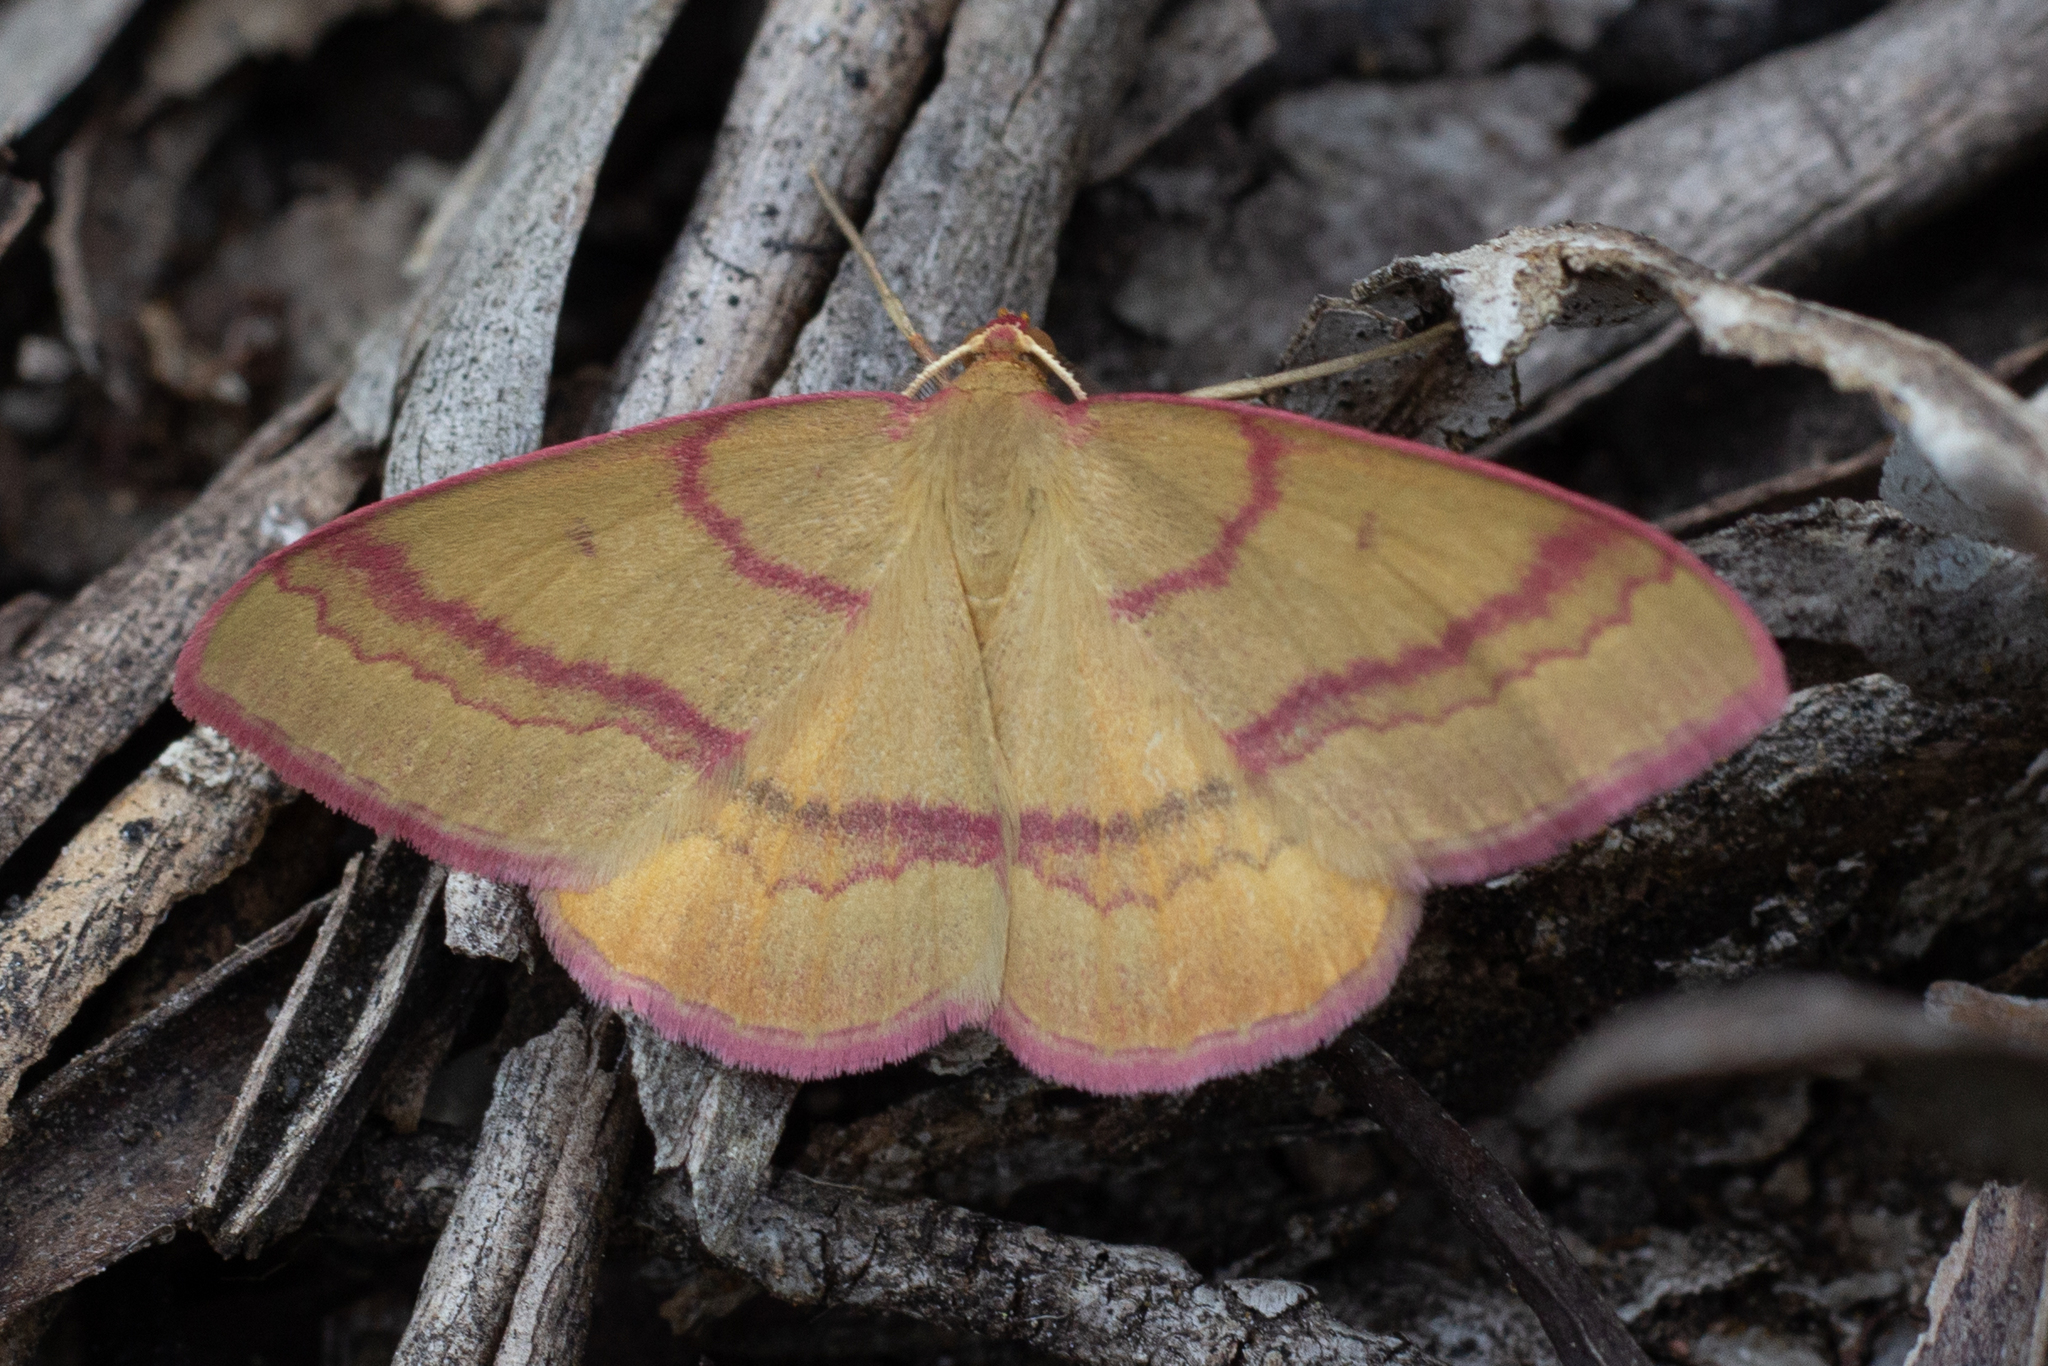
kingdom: Animalia
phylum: Arthropoda
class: Insecta
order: Lepidoptera
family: Geometridae
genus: Rhodostrophia
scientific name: Rhodostrophia calabra
